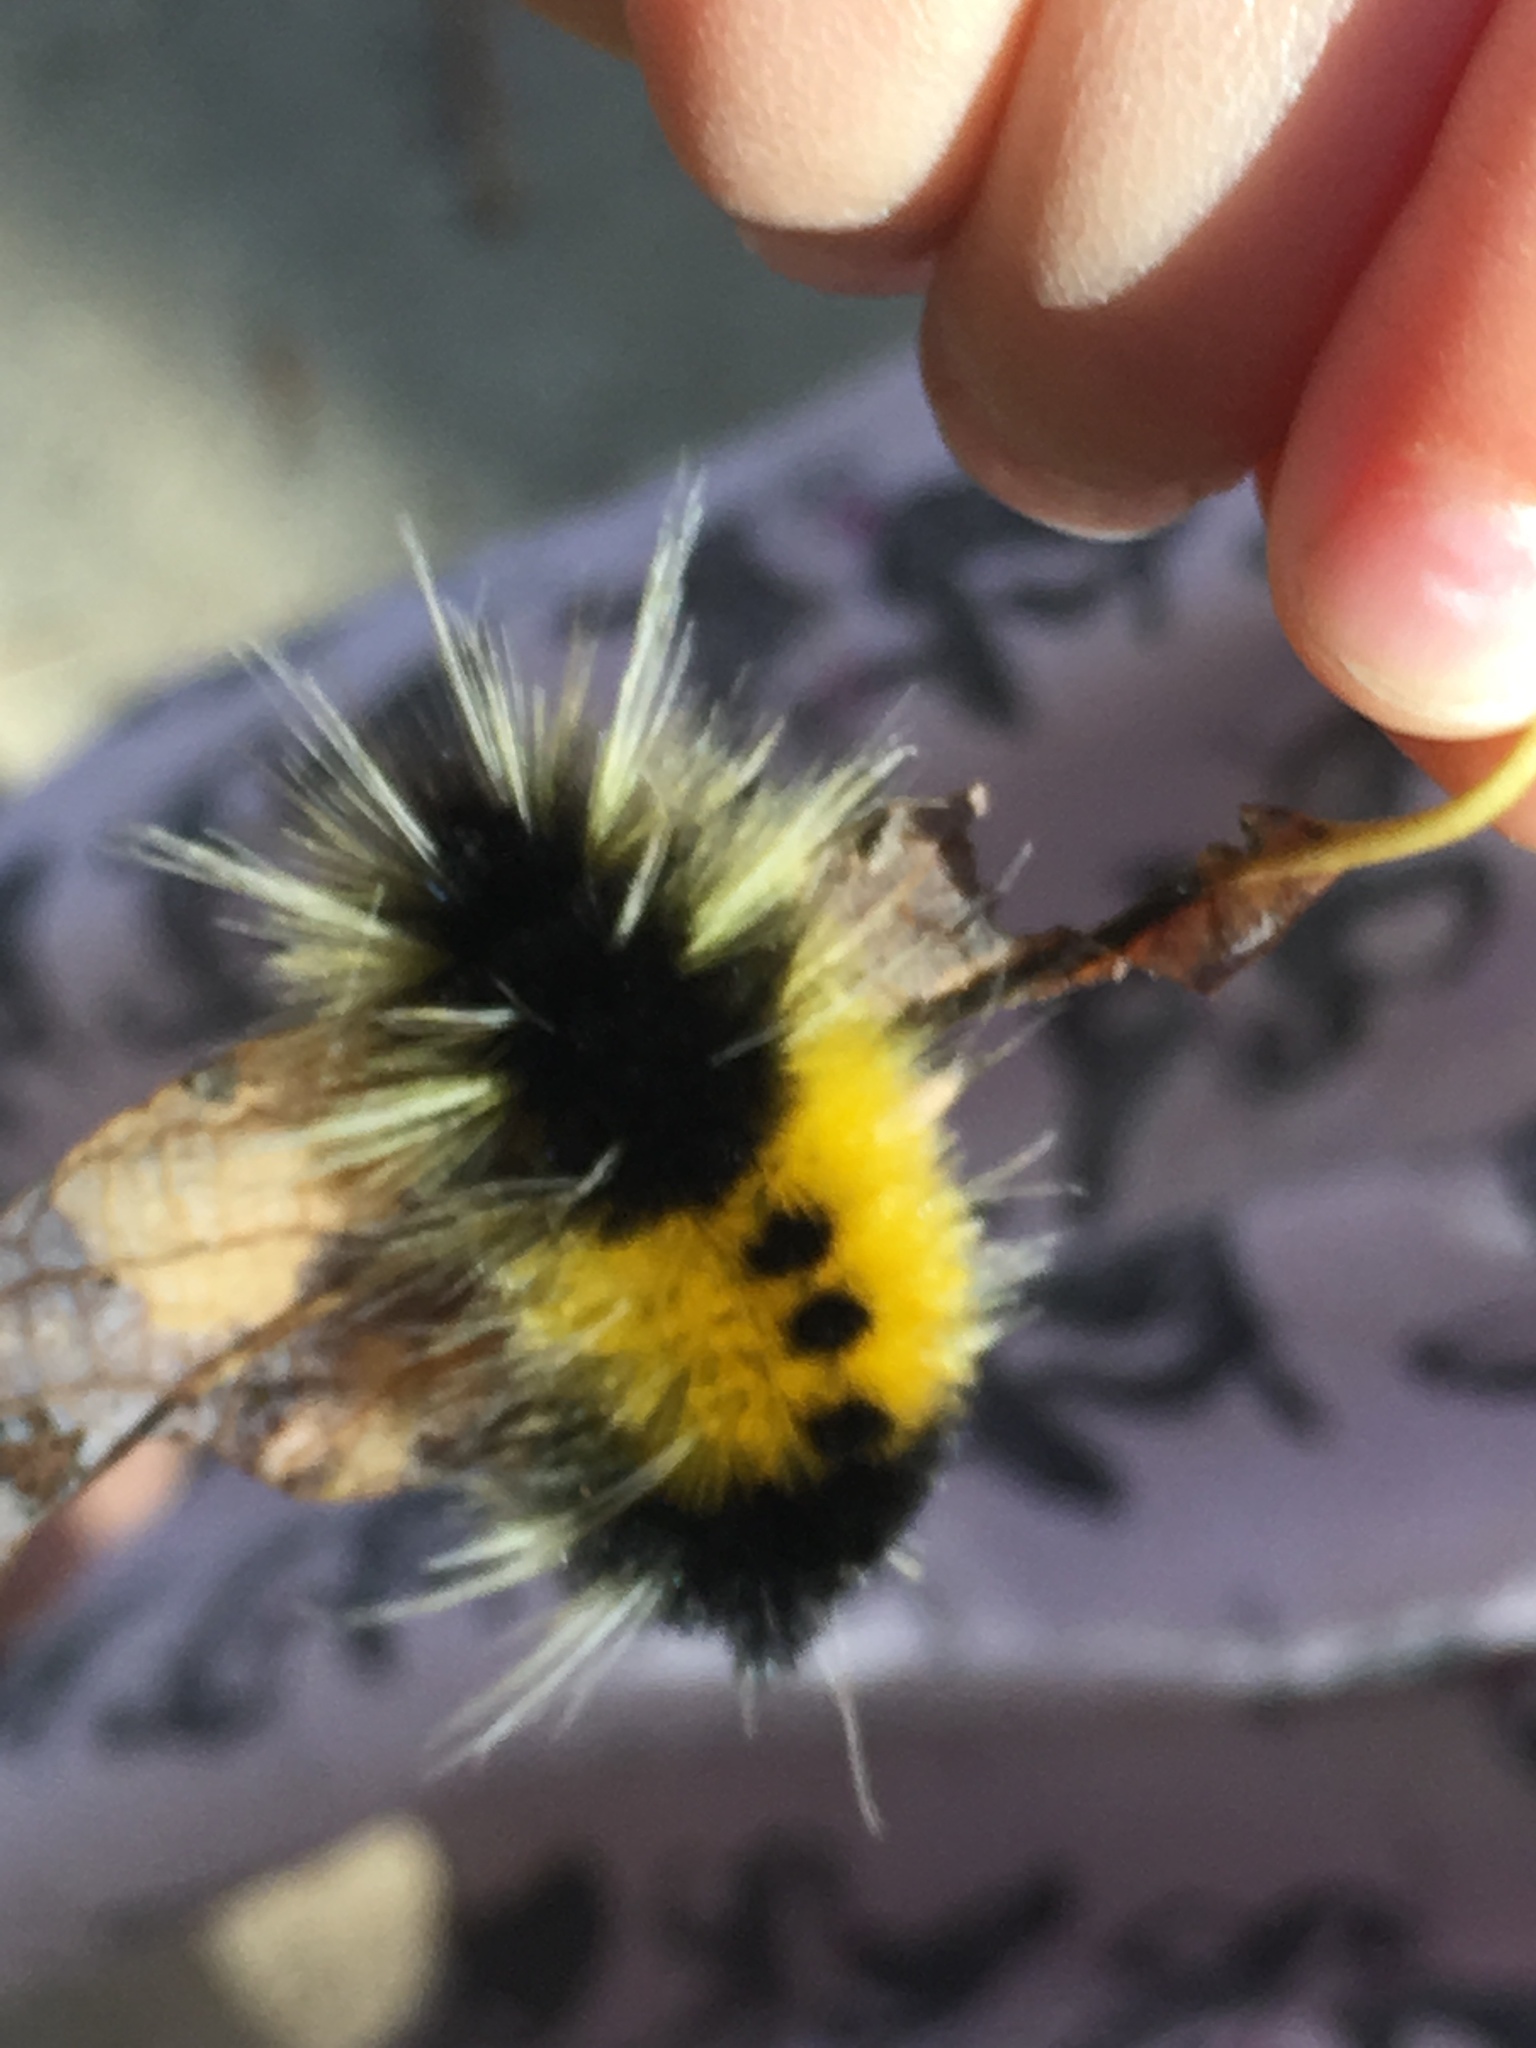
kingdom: Animalia
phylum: Arthropoda
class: Insecta
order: Lepidoptera
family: Erebidae
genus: Lophocampa
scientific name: Lophocampa maculata
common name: Spotted tussock moth
